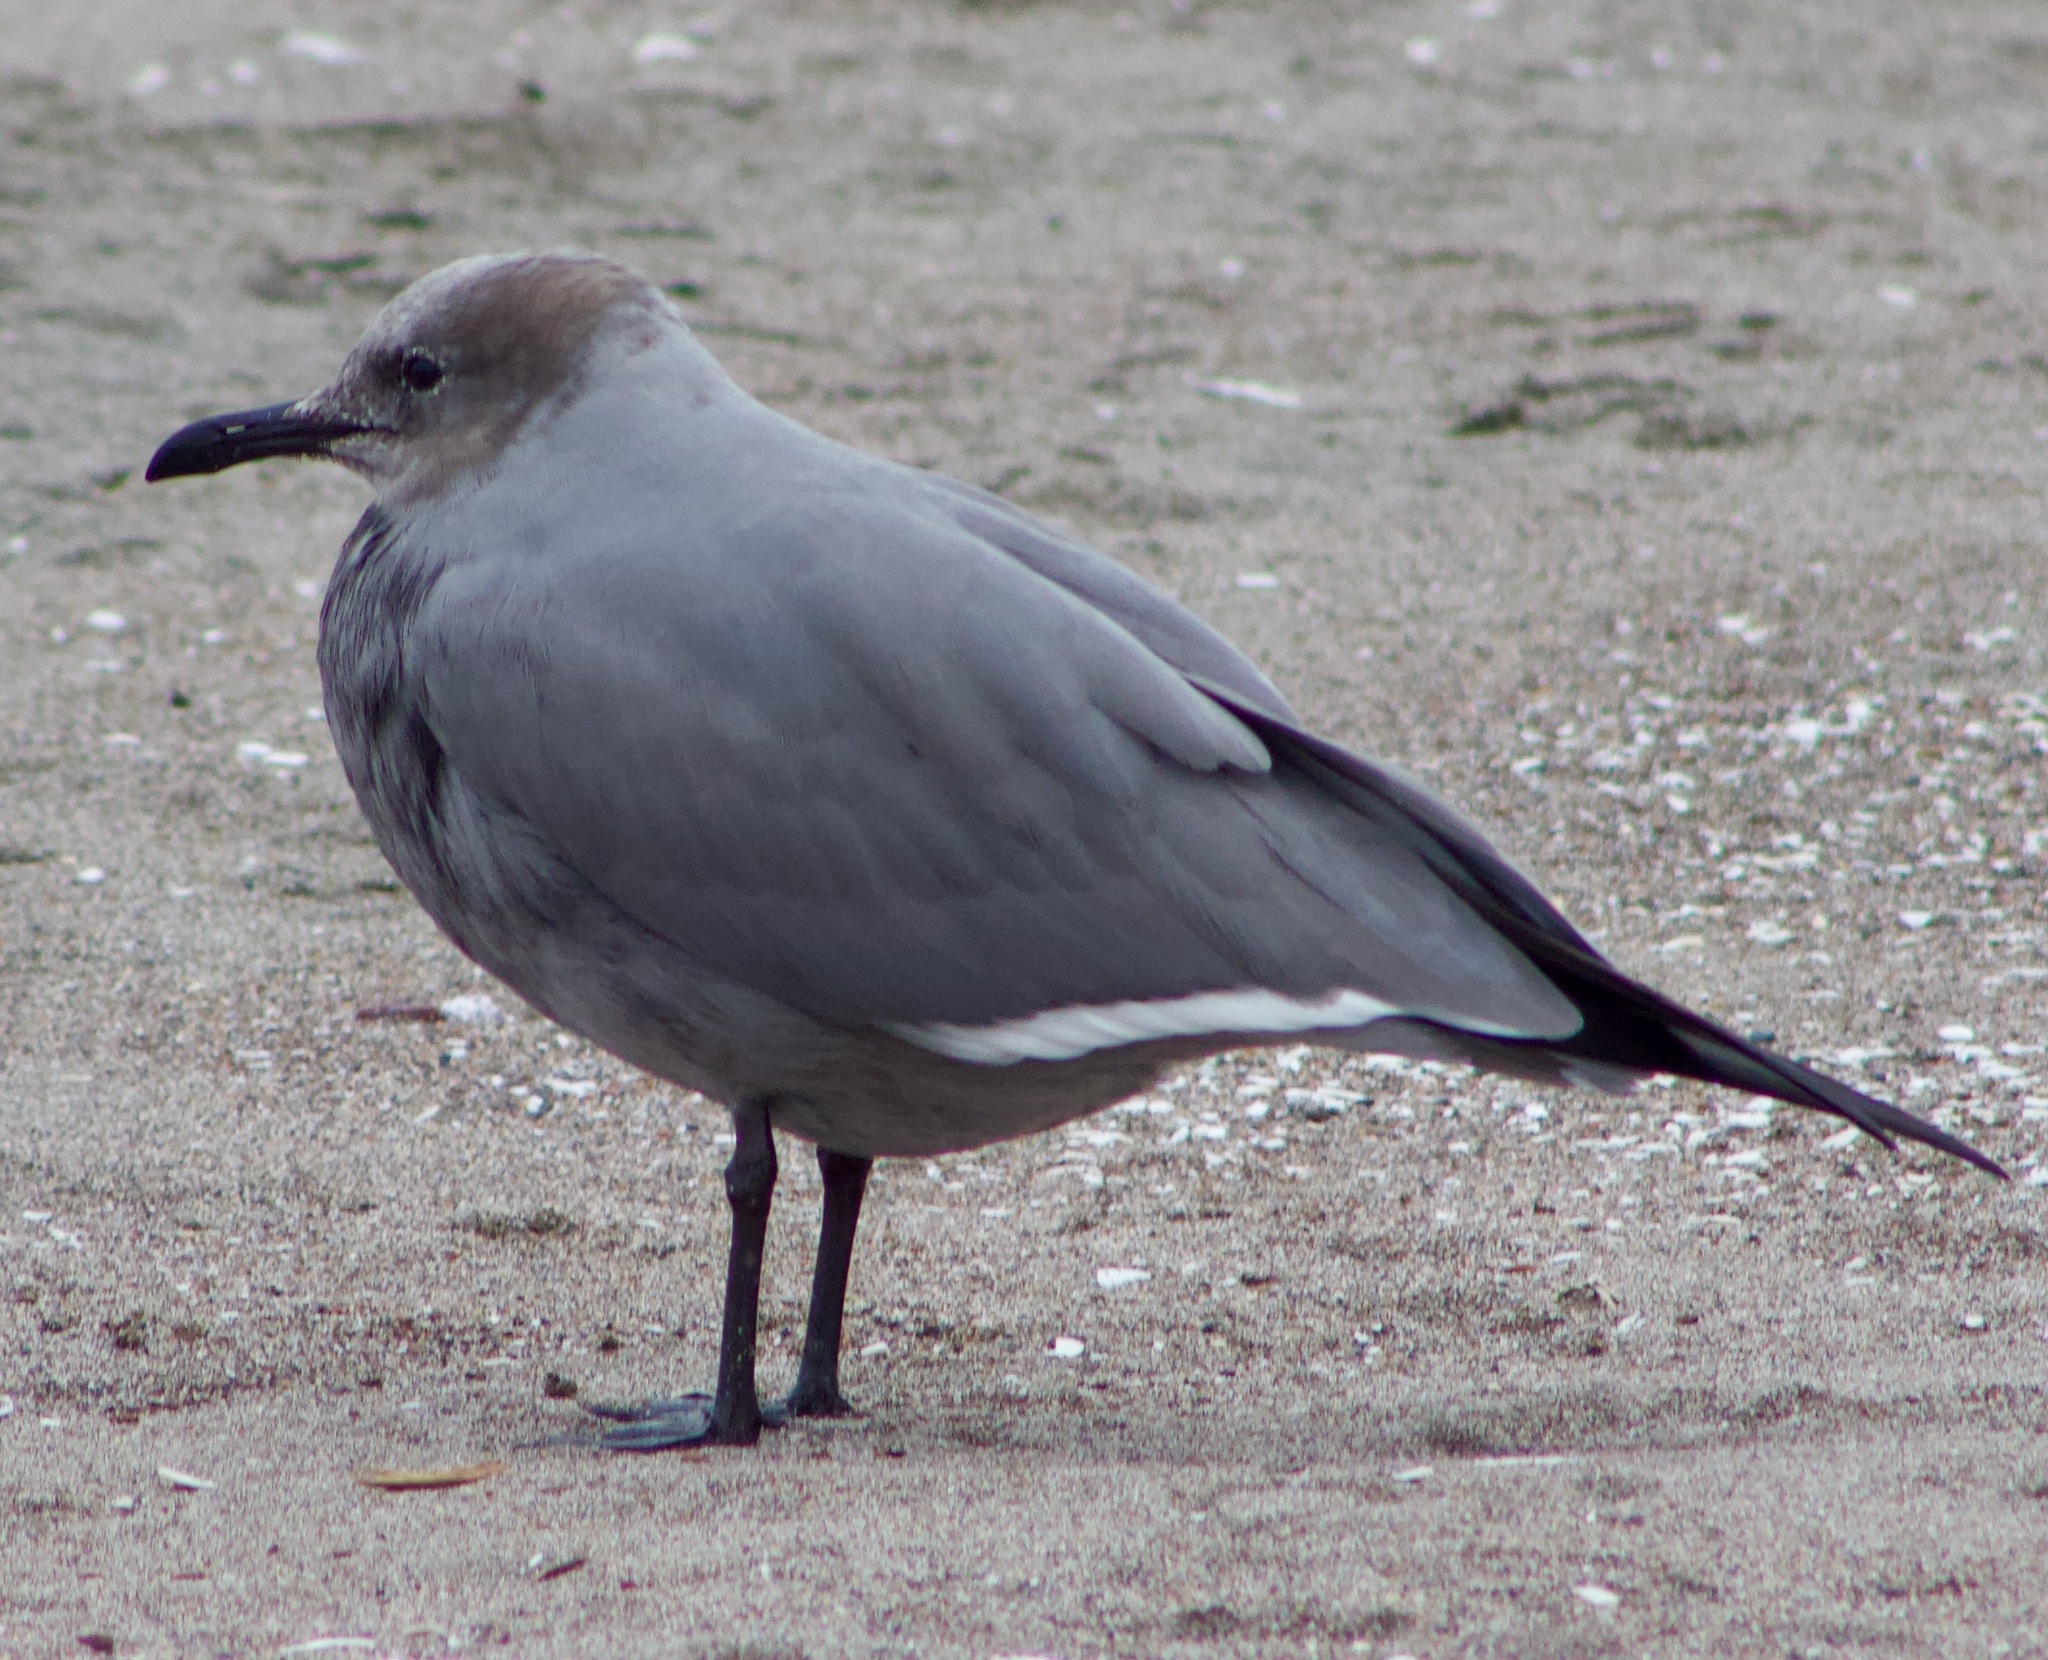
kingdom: Animalia
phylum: Chordata
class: Aves
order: Charadriiformes
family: Laridae
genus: Leucophaeus
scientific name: Leucophaeus modestus
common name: Gray gull
